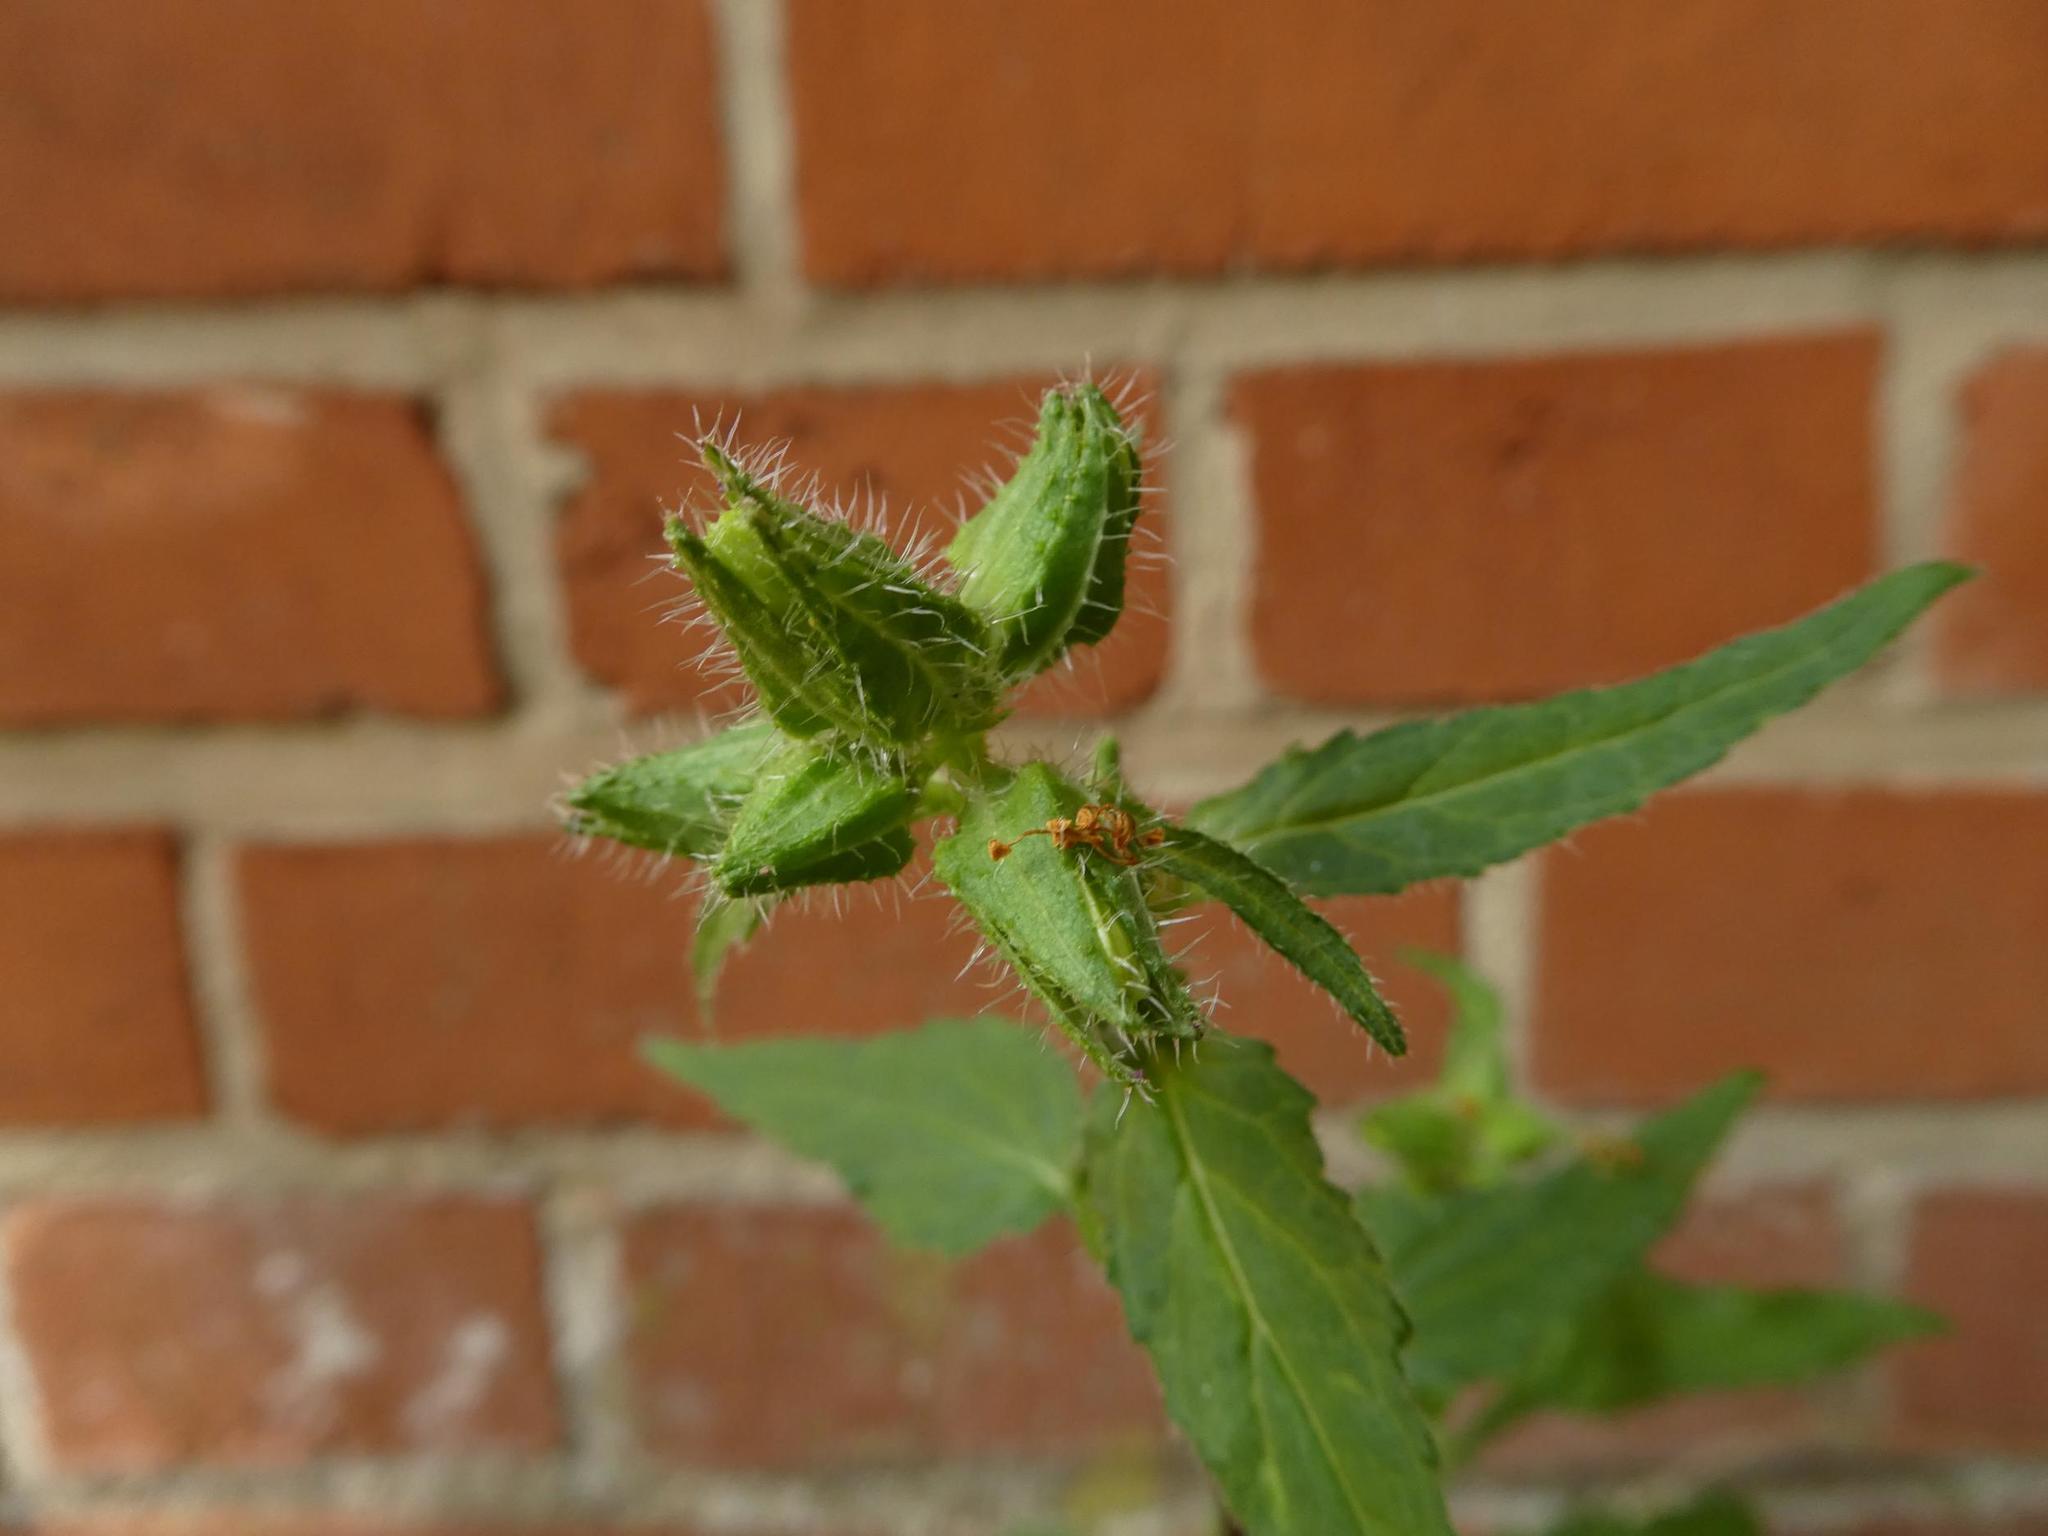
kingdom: Plantae
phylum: Tracheophyta
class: Magnoliopsida
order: Asterales
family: Campanulaceae
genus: Campanula
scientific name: Campanula trachelium
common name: Nettle-leaved bellflower
